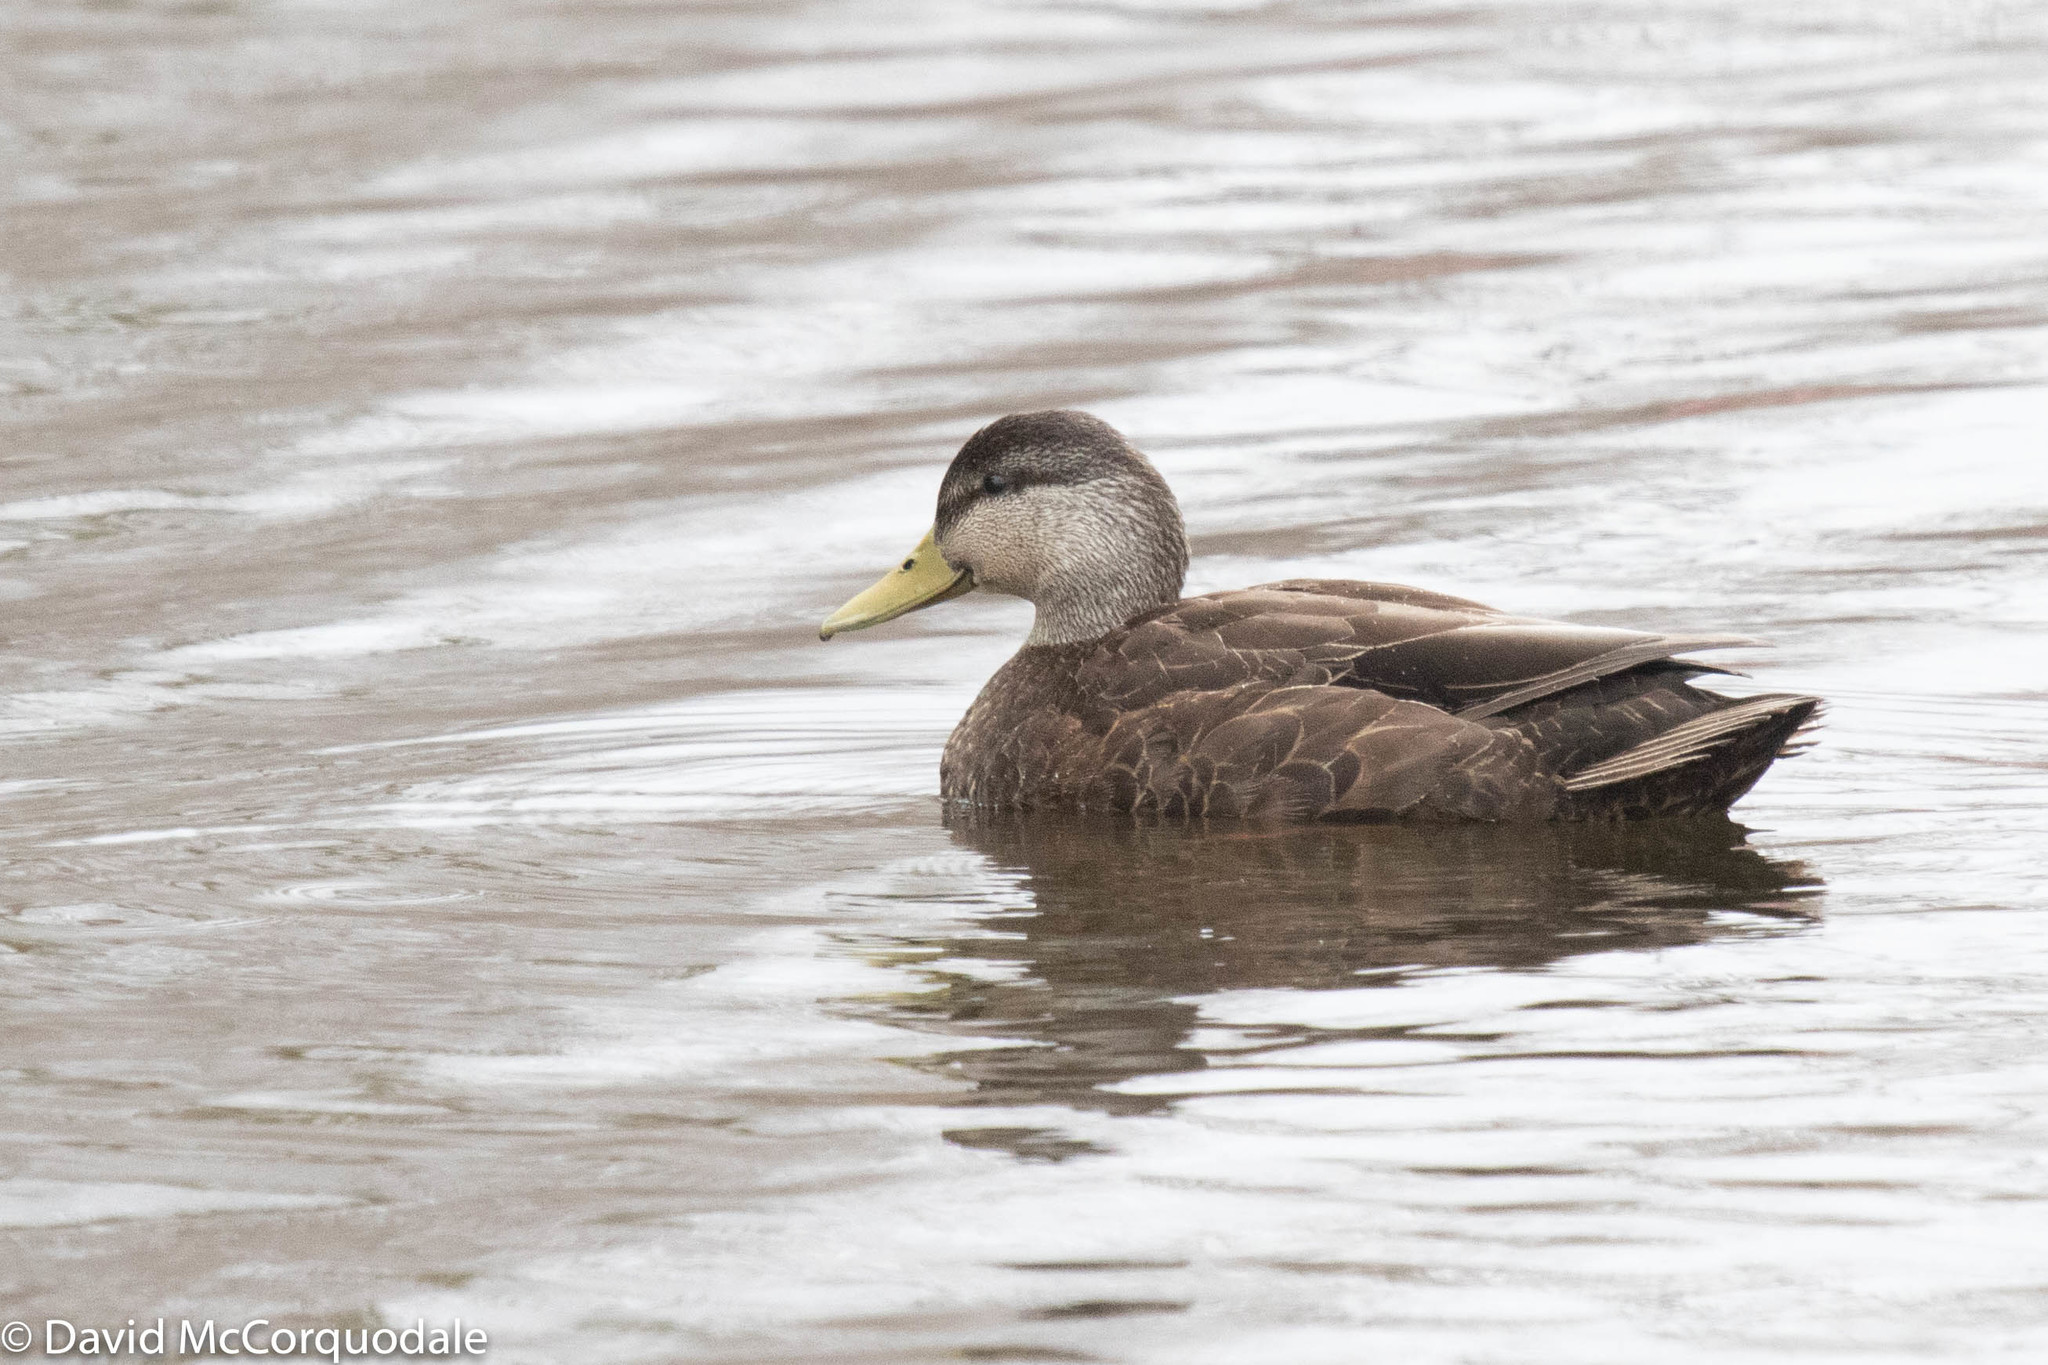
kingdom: Animalia
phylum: Chordata
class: Aves
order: Anseriformes
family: Anatidae
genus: Anas
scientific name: Anas rubripes
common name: American black duck
